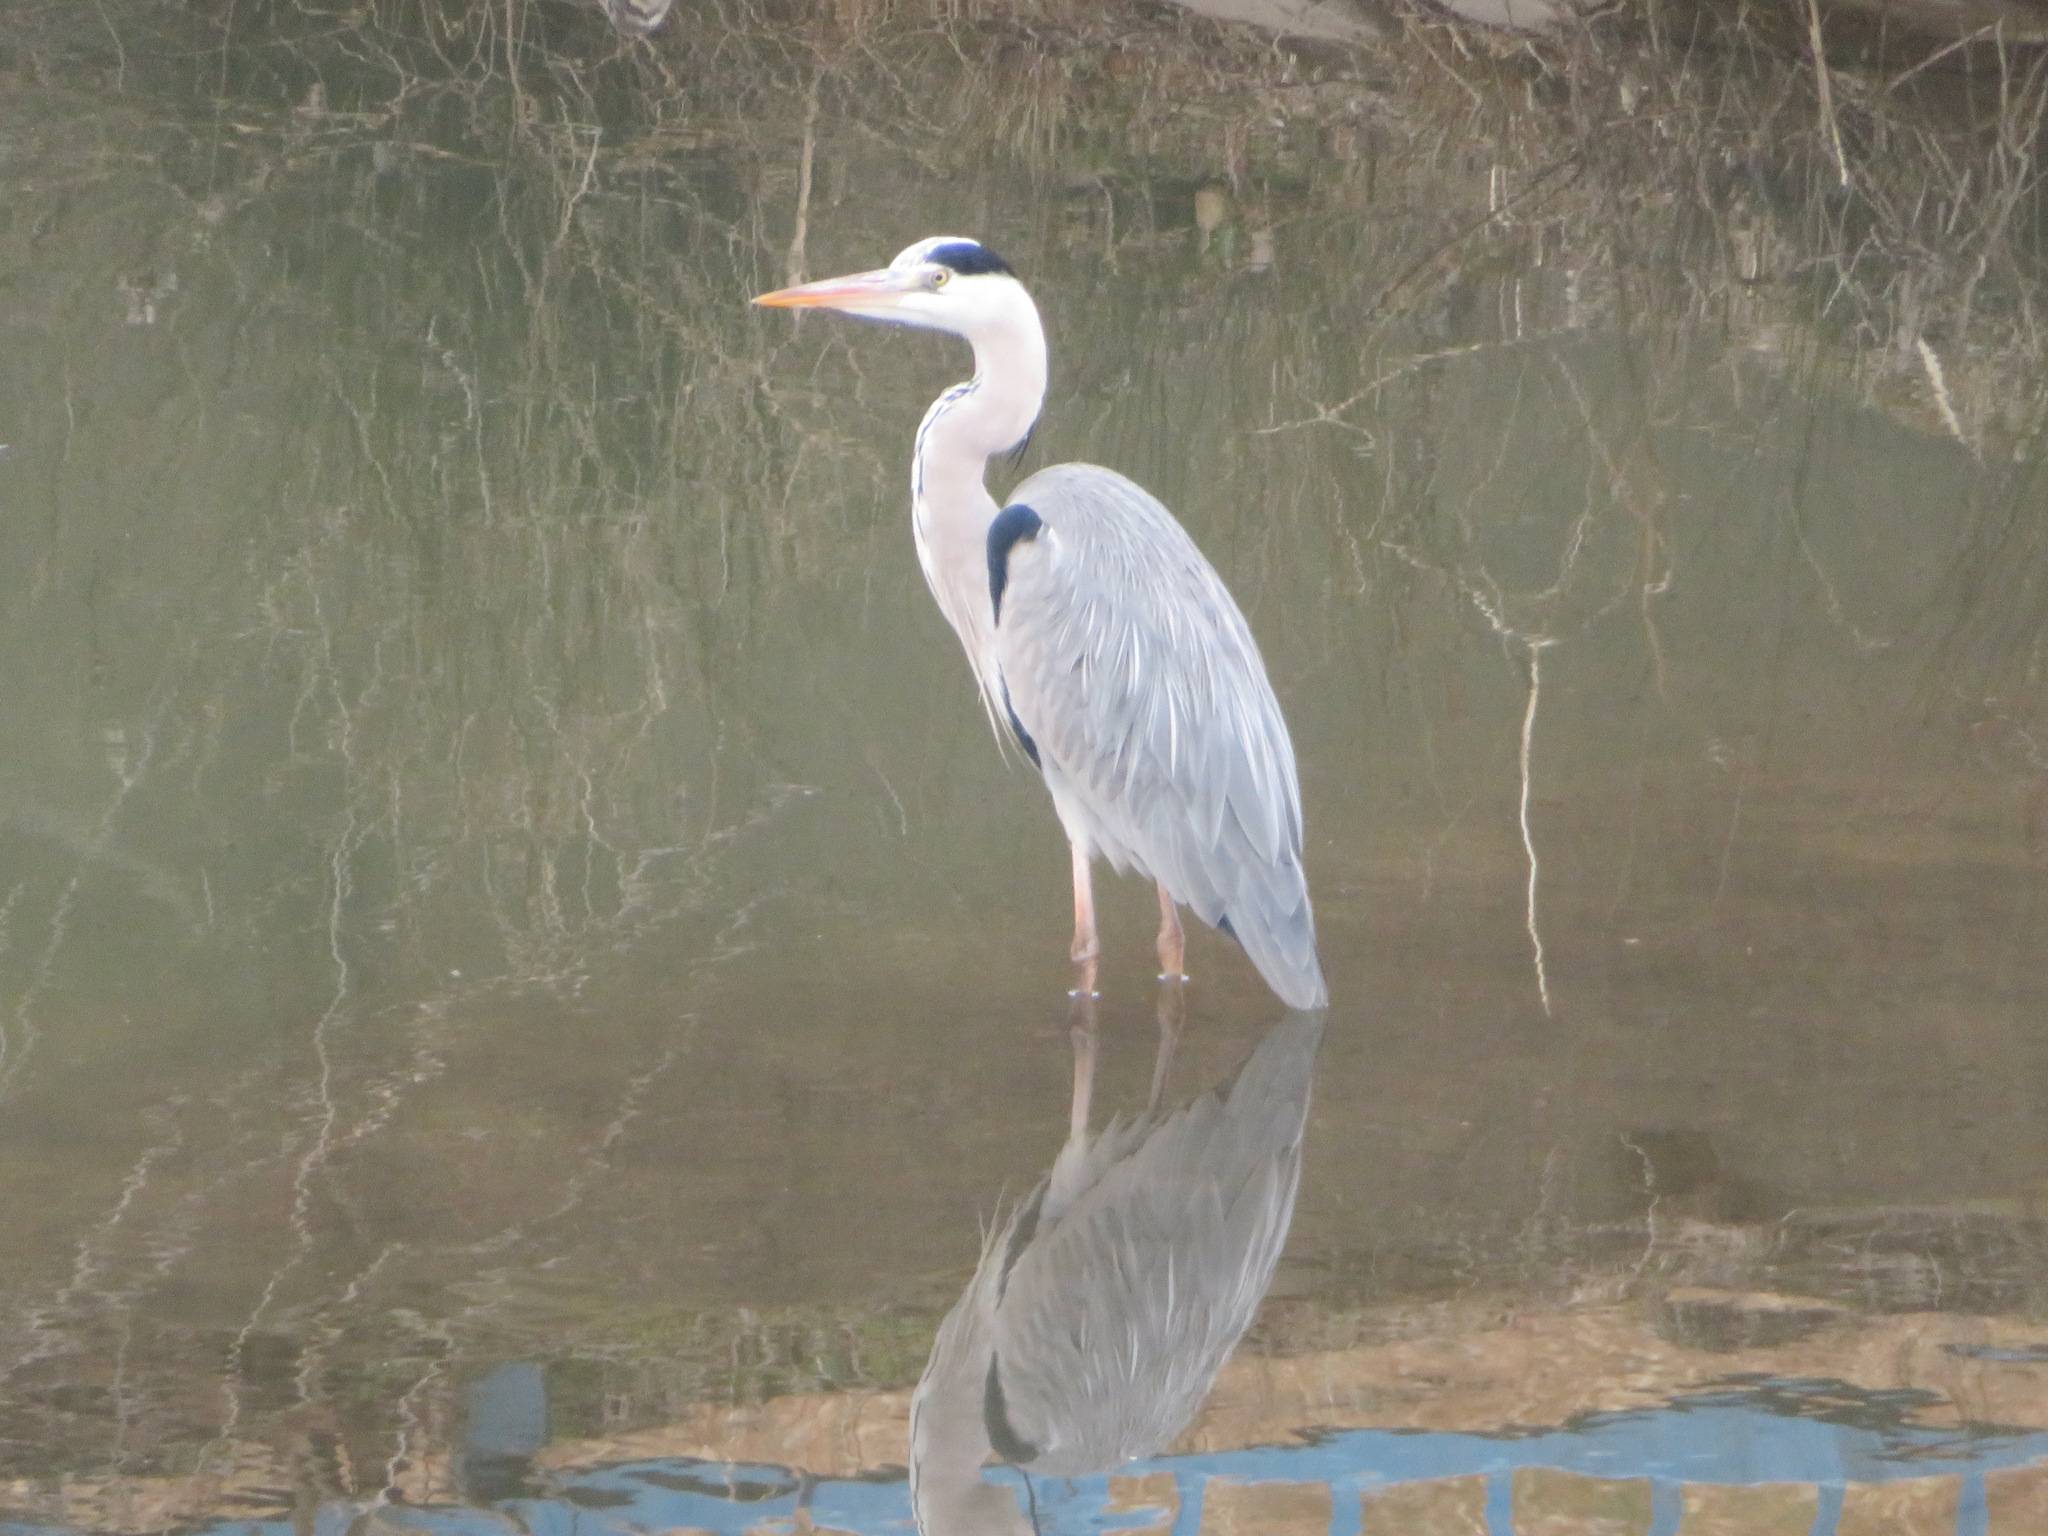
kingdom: Animalia
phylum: Chordata
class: Aves
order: Pelecaniformes
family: Ardeidae
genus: Ardea
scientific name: Ardea cinerea
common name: Grey heron
